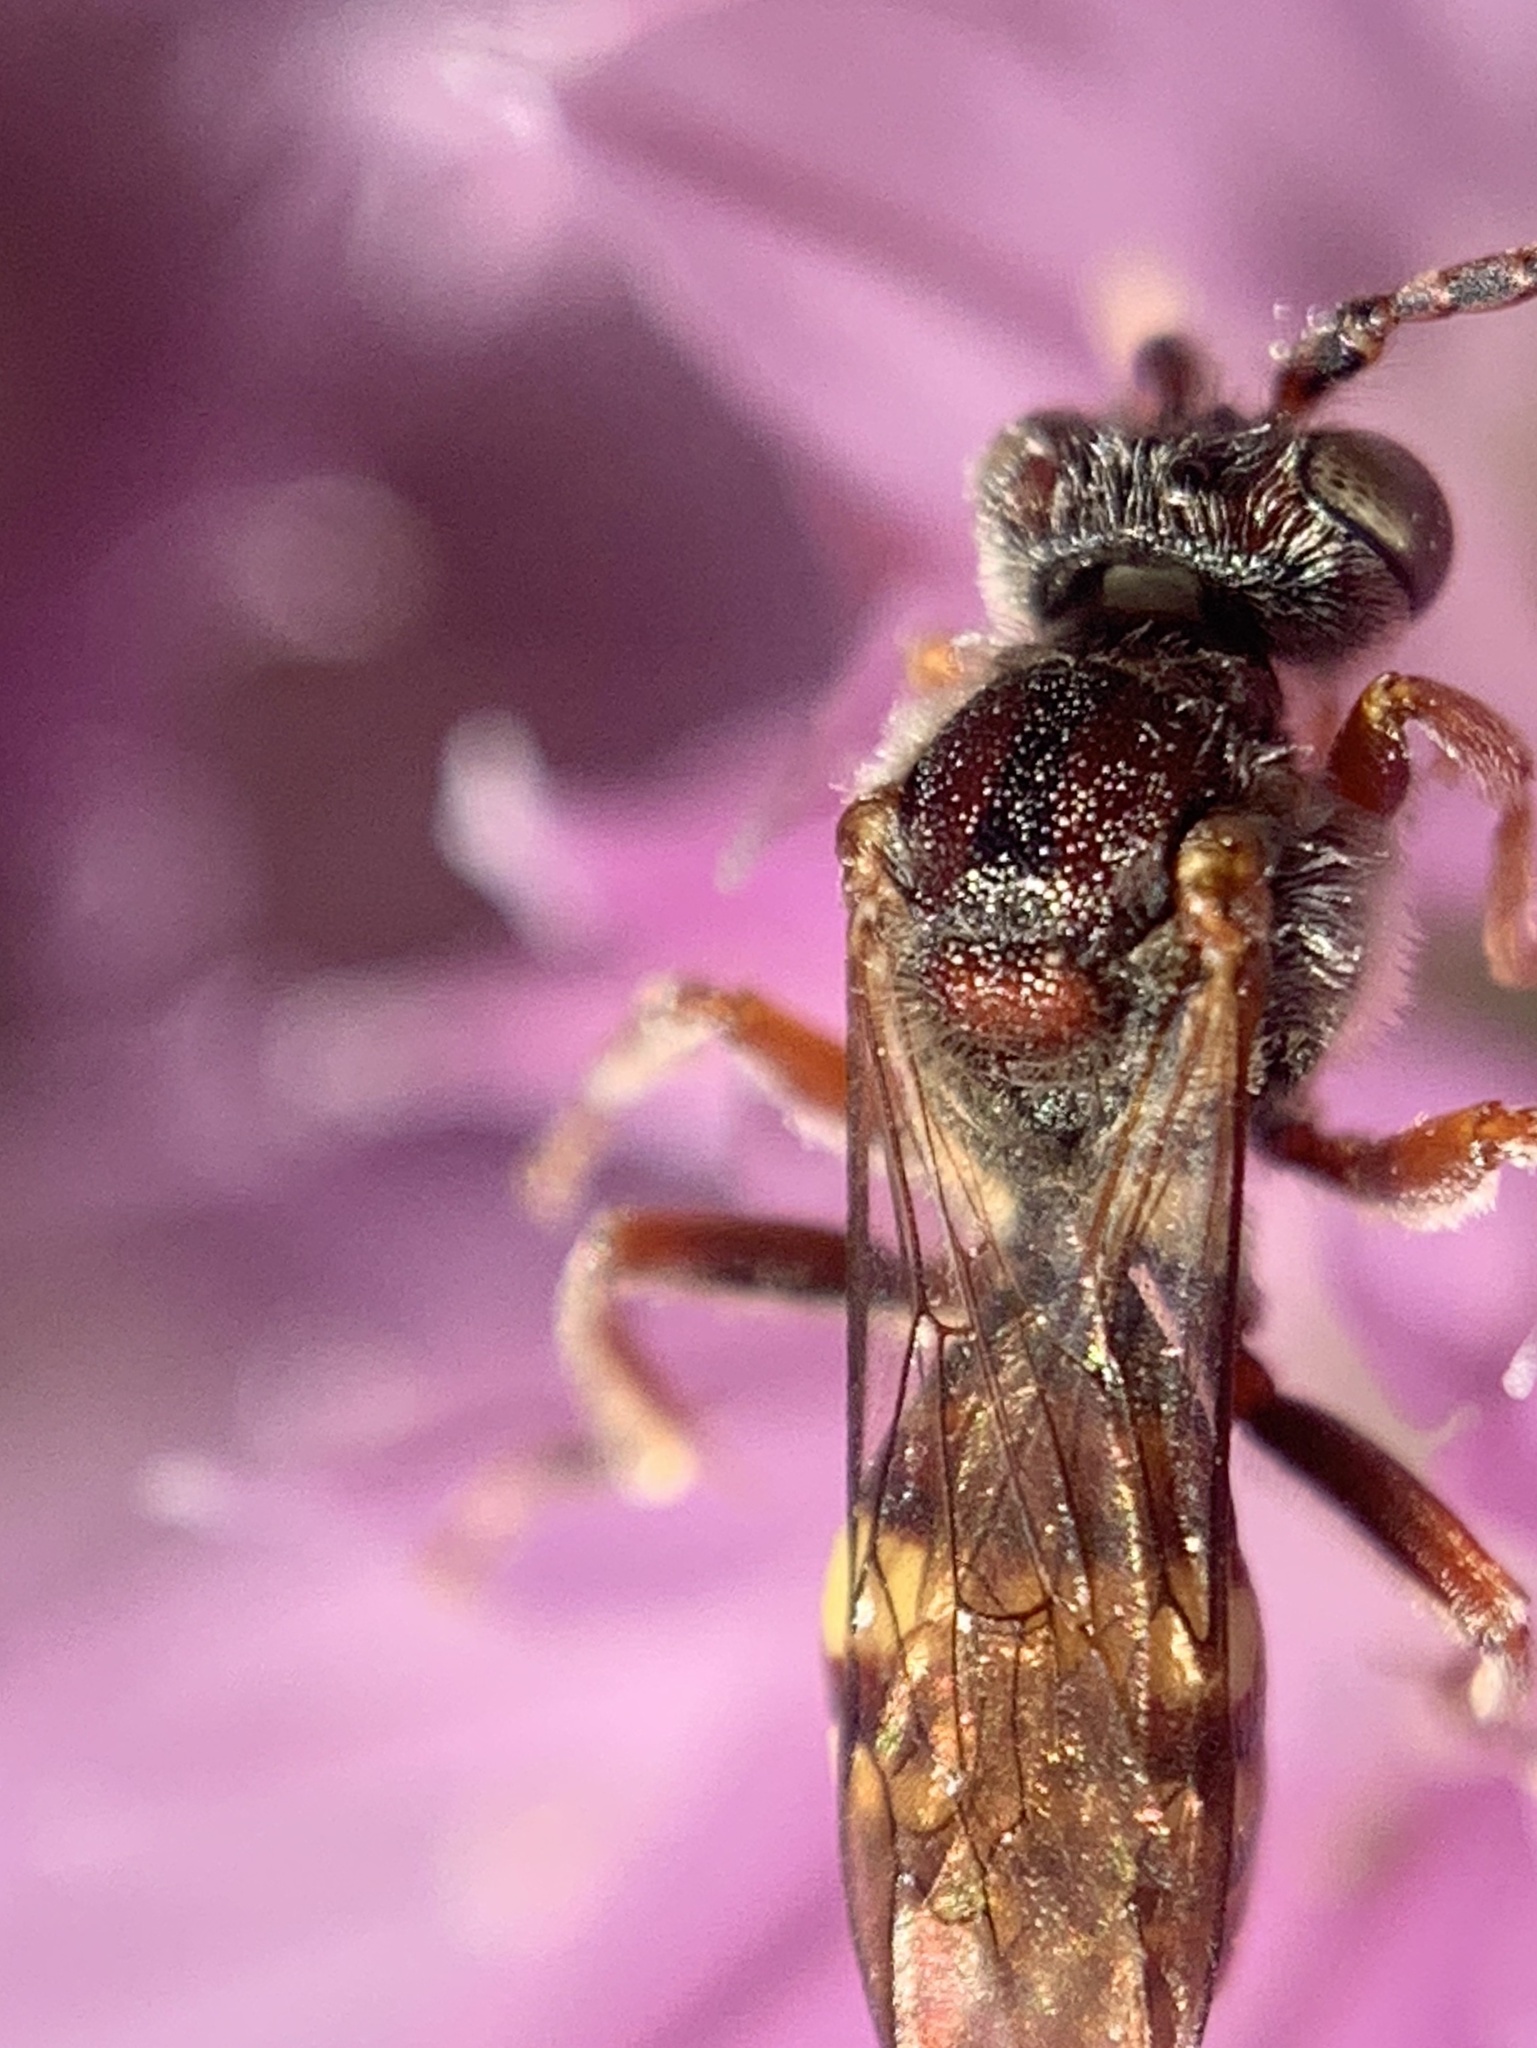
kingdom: Animalia
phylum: Arthropoda
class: Insecta
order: Hymenoptera
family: Apidae
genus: Nomada
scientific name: Nomada
